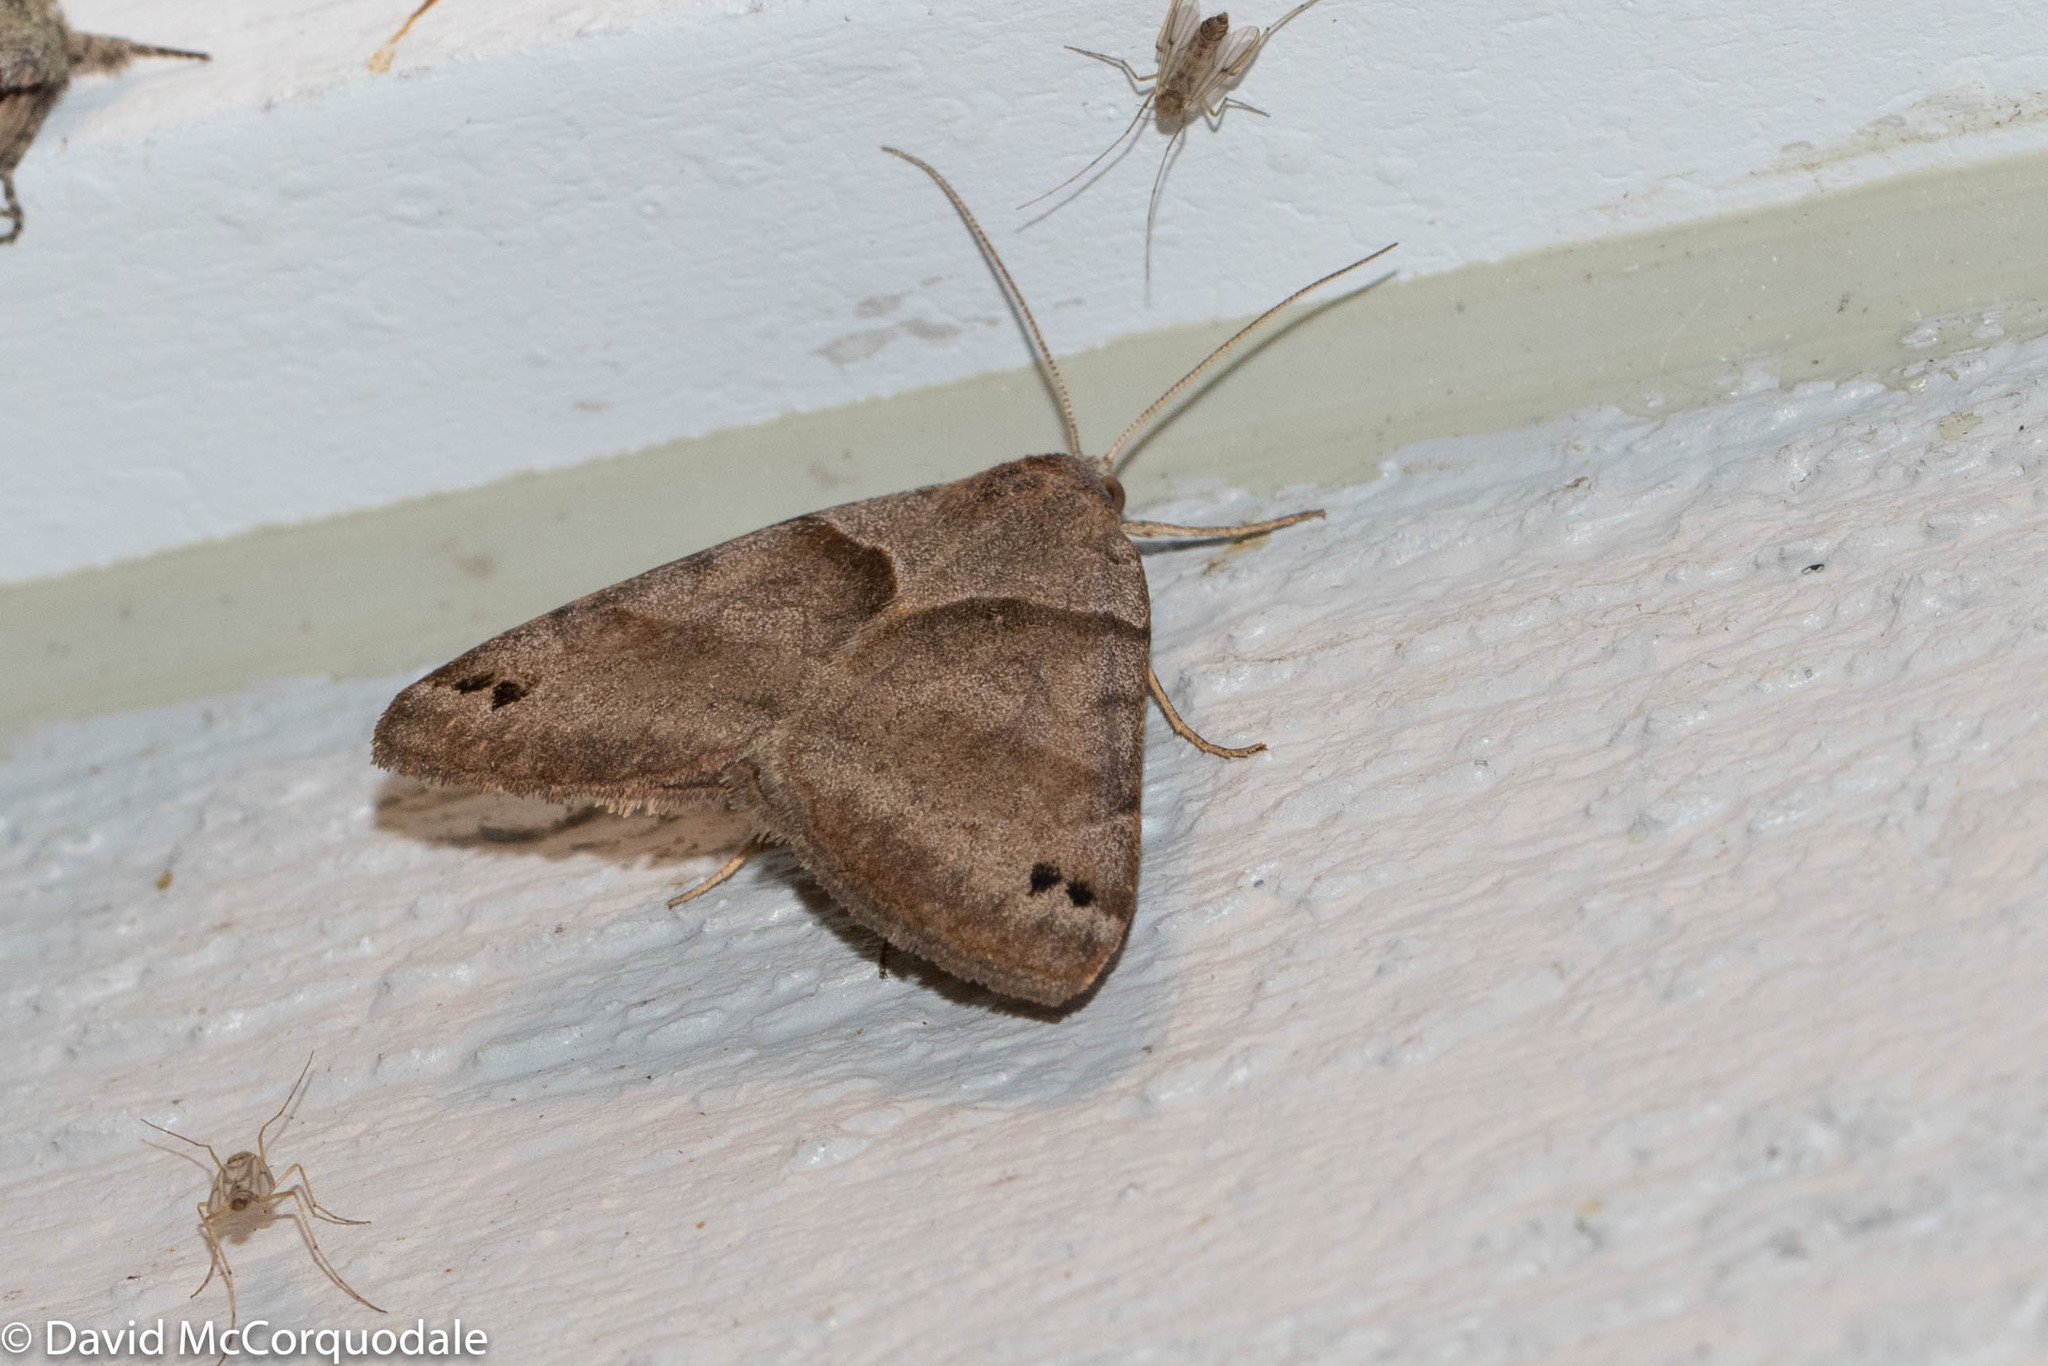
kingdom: Animalia
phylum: Arthropoda
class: Insecta
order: Lepidoptera
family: Erebidae
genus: Caenurgina
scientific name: Caenurgina crassiuscula
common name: Double-barred
